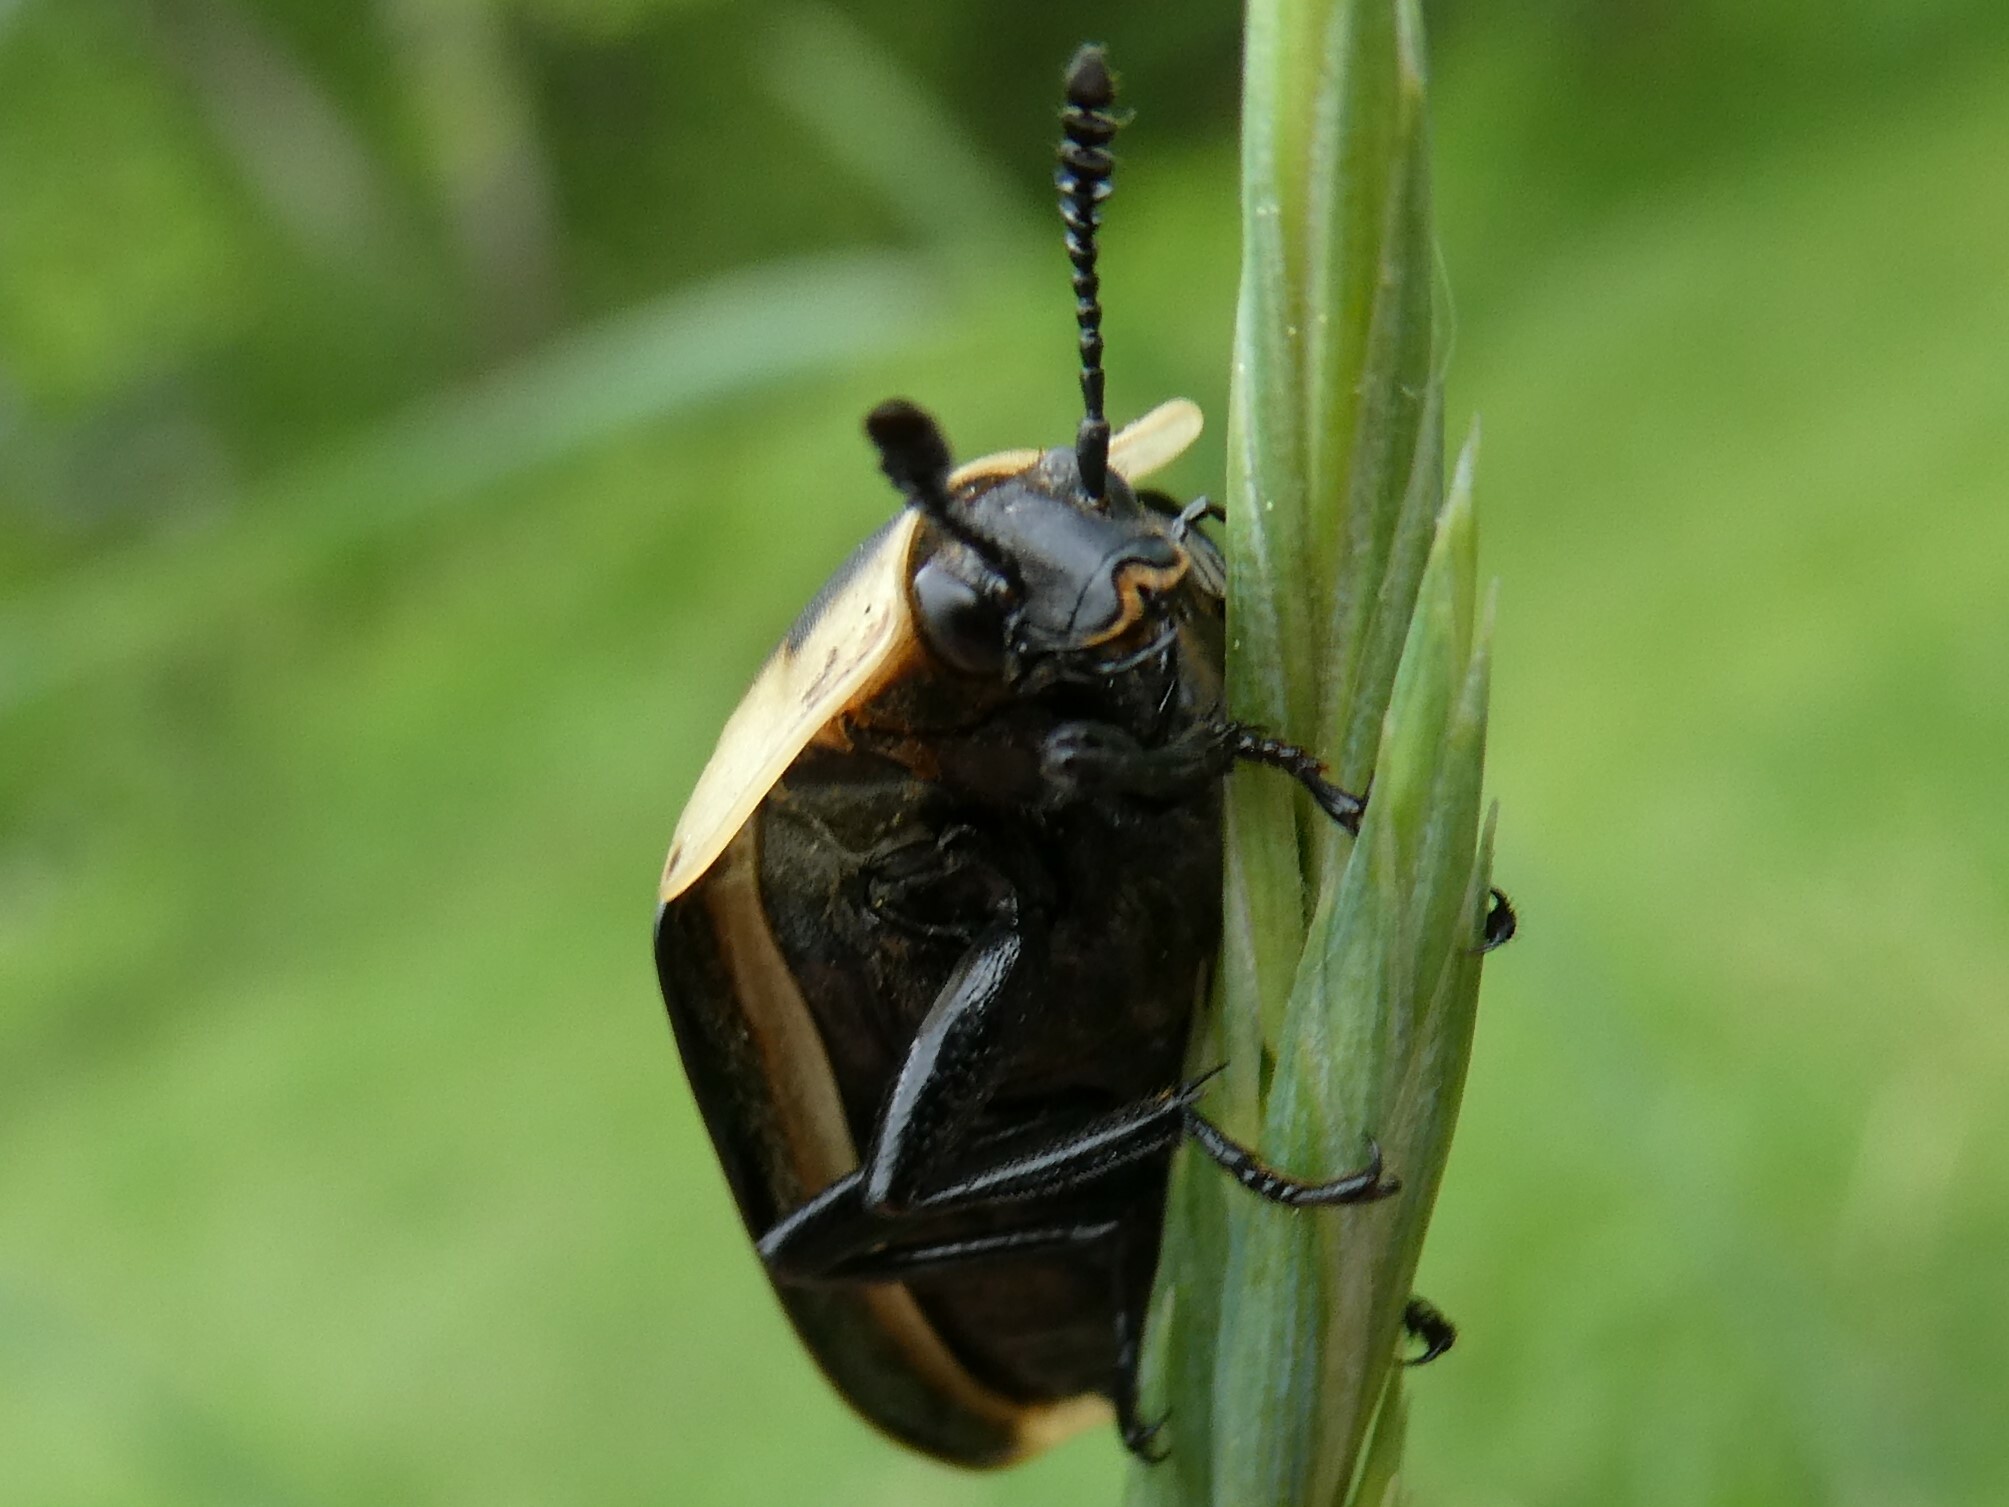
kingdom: Animalia
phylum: Arthropoda
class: Insecta
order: Coleoptera
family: Staphylinidae
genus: Necrophila
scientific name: Necrophila americana
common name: American carrion beetle
